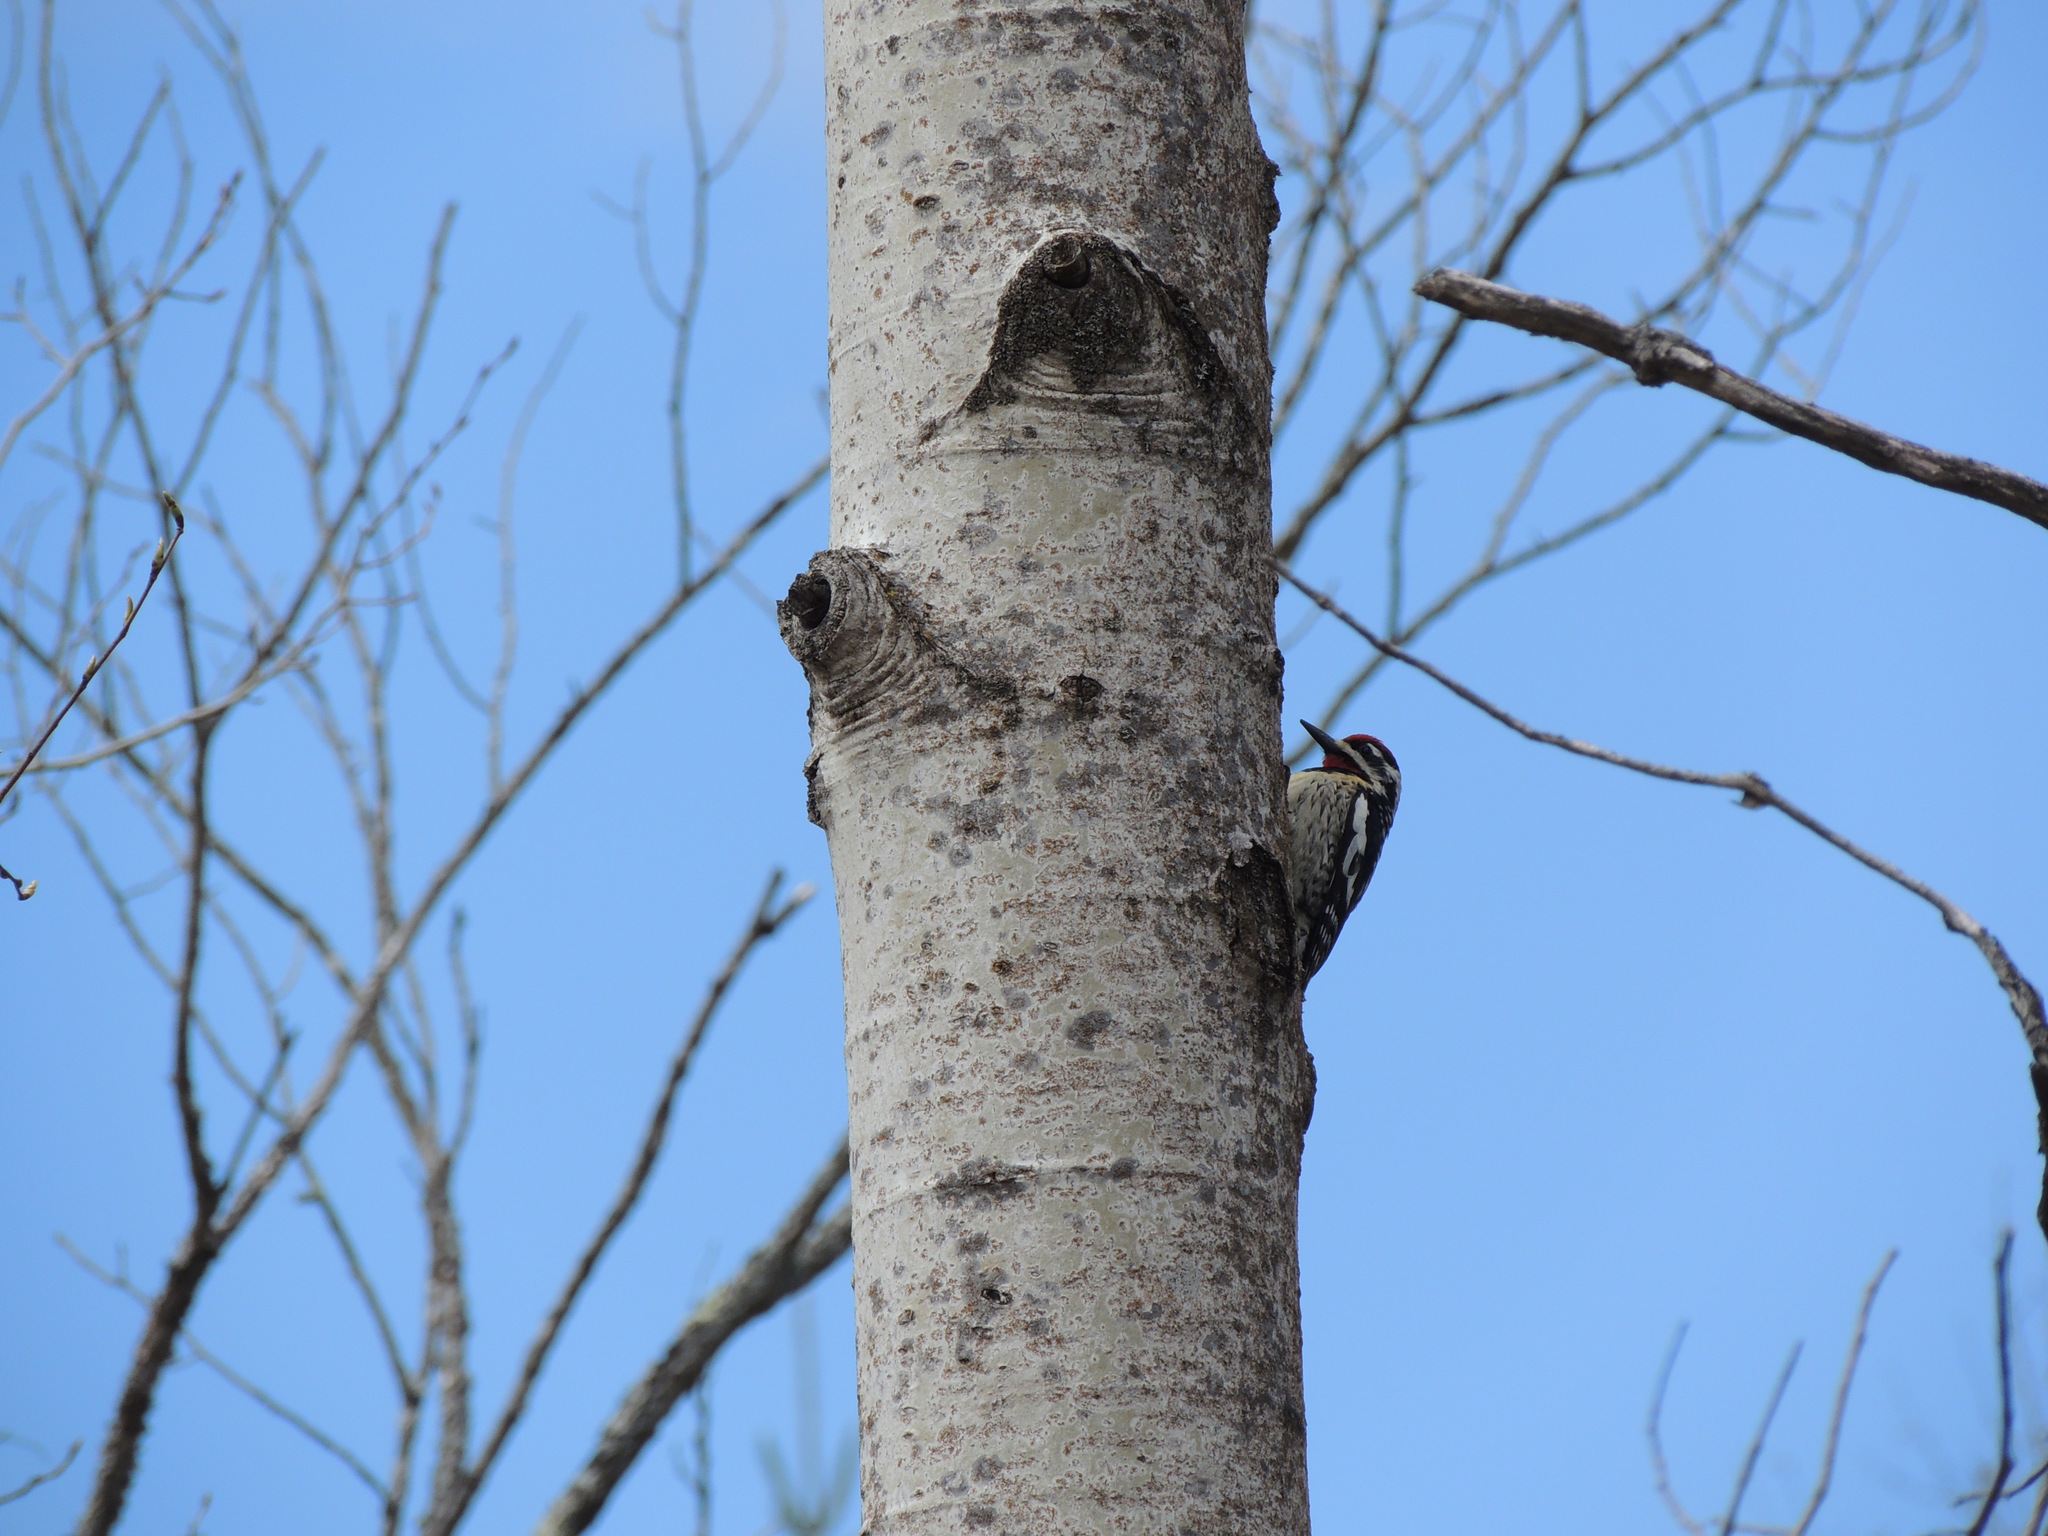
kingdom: Animalia
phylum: Chordata
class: Aves
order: Piciformes
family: Picidae
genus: Sphyrapicus
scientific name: Sphyrapicus varius
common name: Yellow-bellied sapsucker
